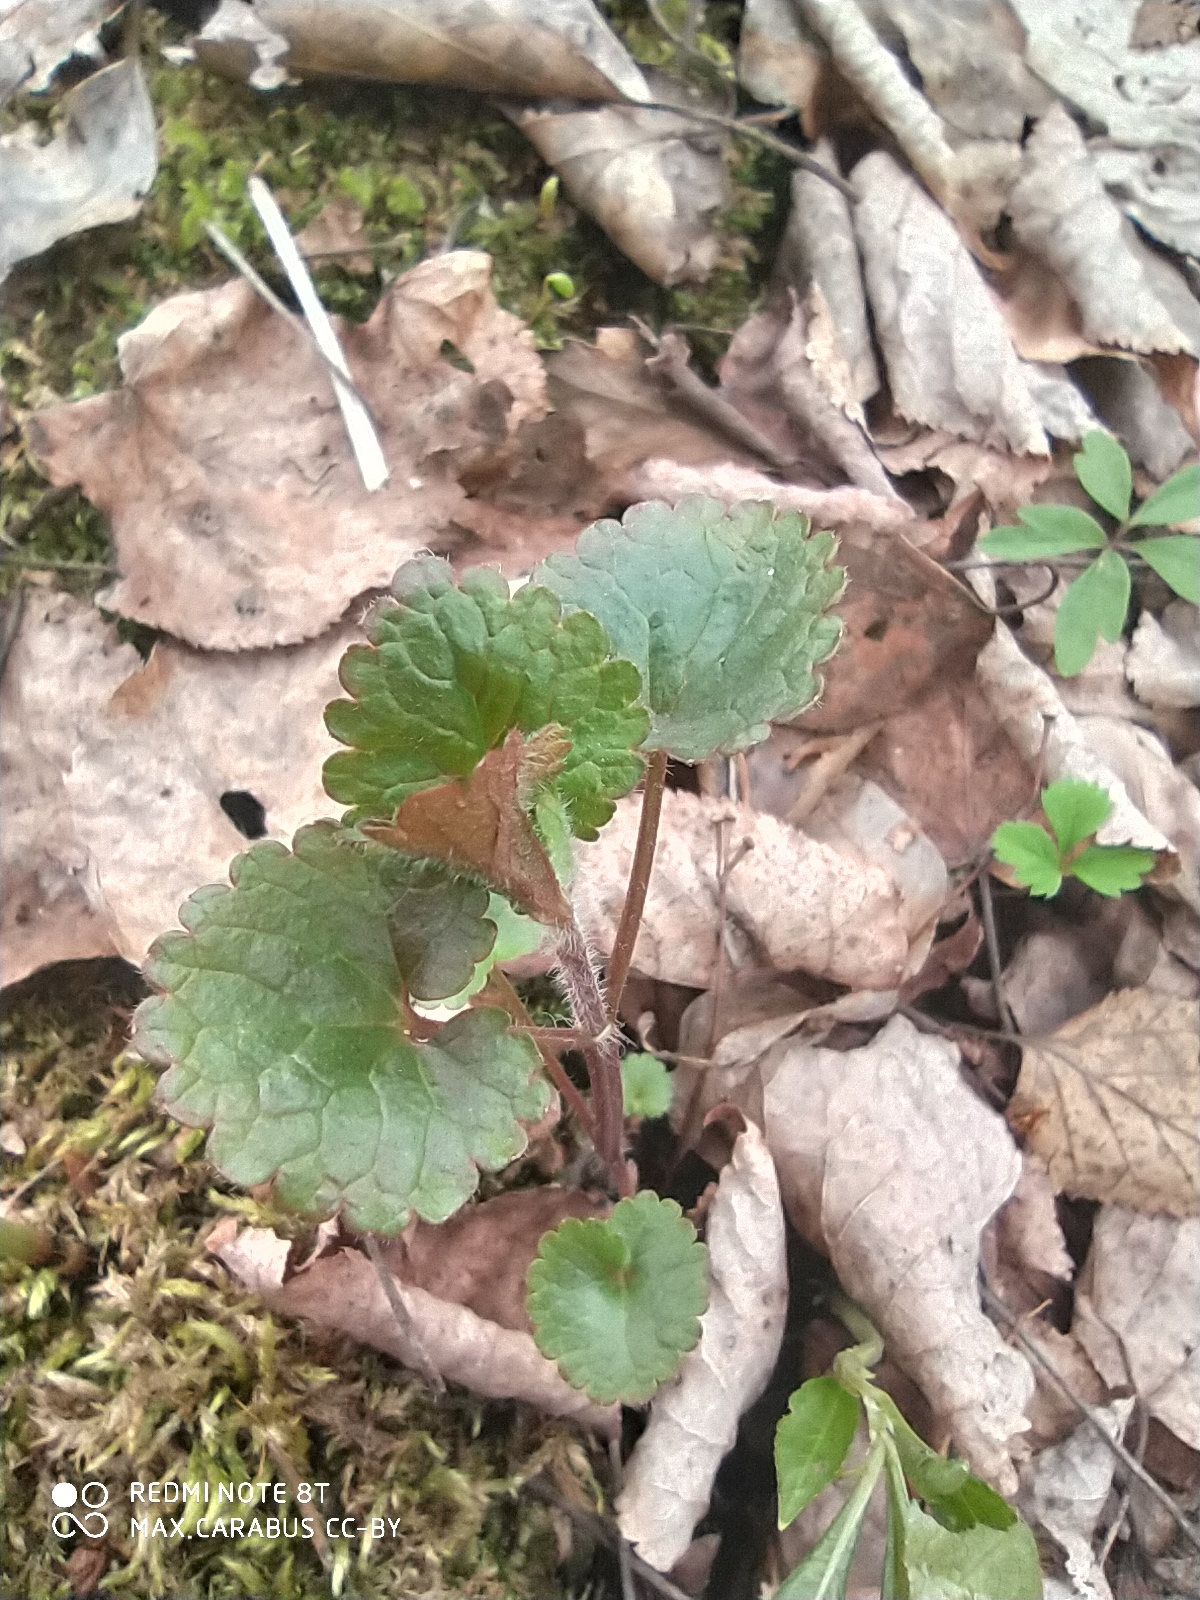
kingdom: Plantae
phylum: Tracheophyta
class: Magnoliopsida
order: Lamiales
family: Lamiaceae
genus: Glechoma
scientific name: Glechoma hederacea
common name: Ground ivy
